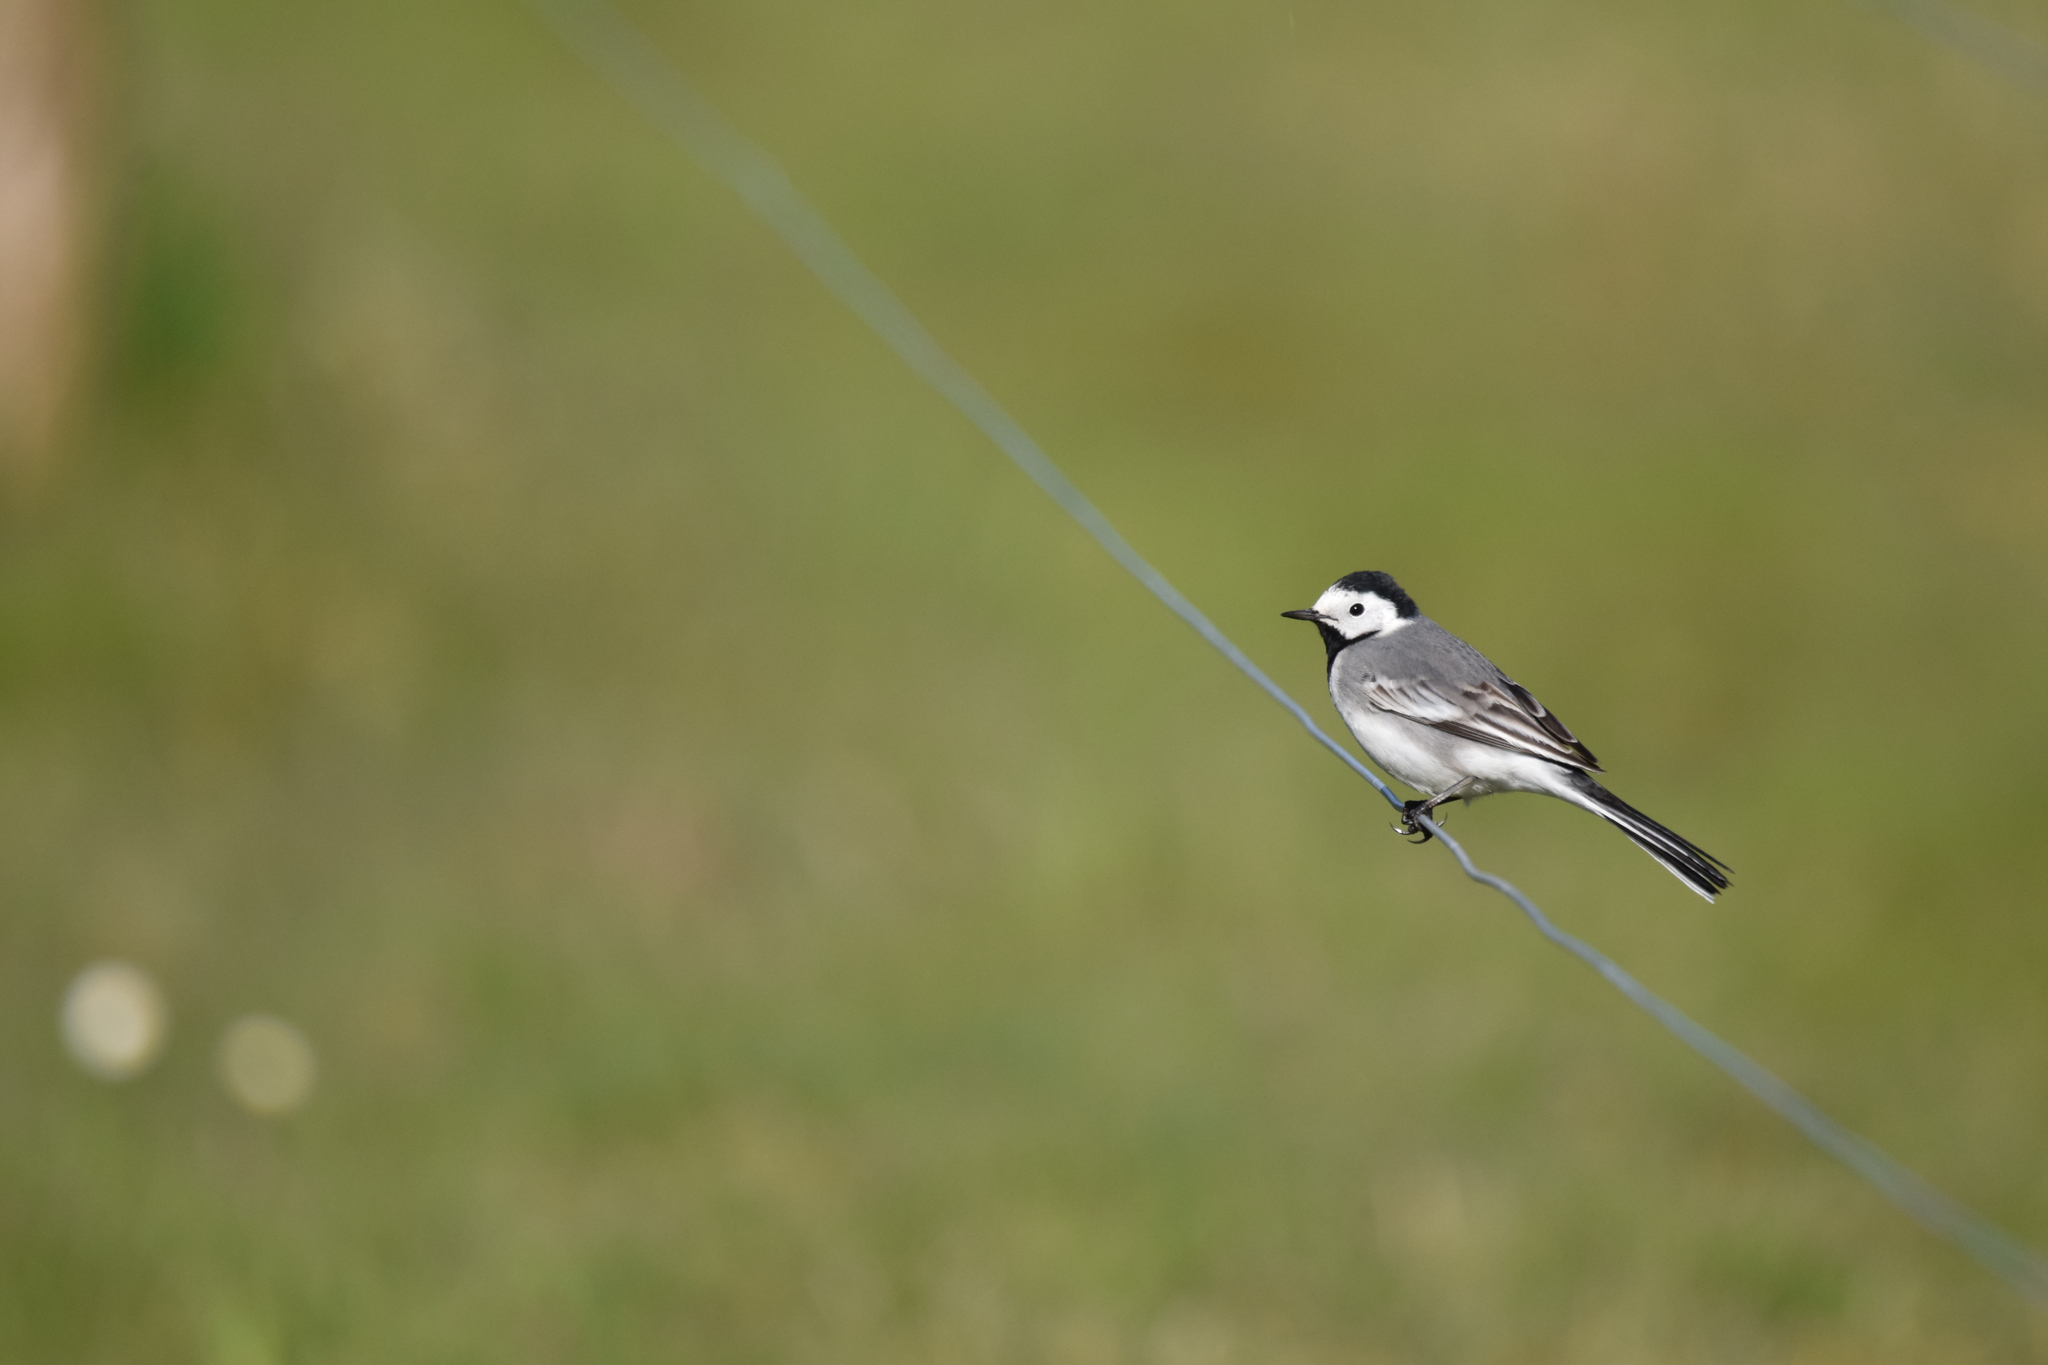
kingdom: Animalia
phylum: Chordata
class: Aves
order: Passeriformes
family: Motacillidae
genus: Motacilla
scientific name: Motacilla alba
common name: White wagtail
